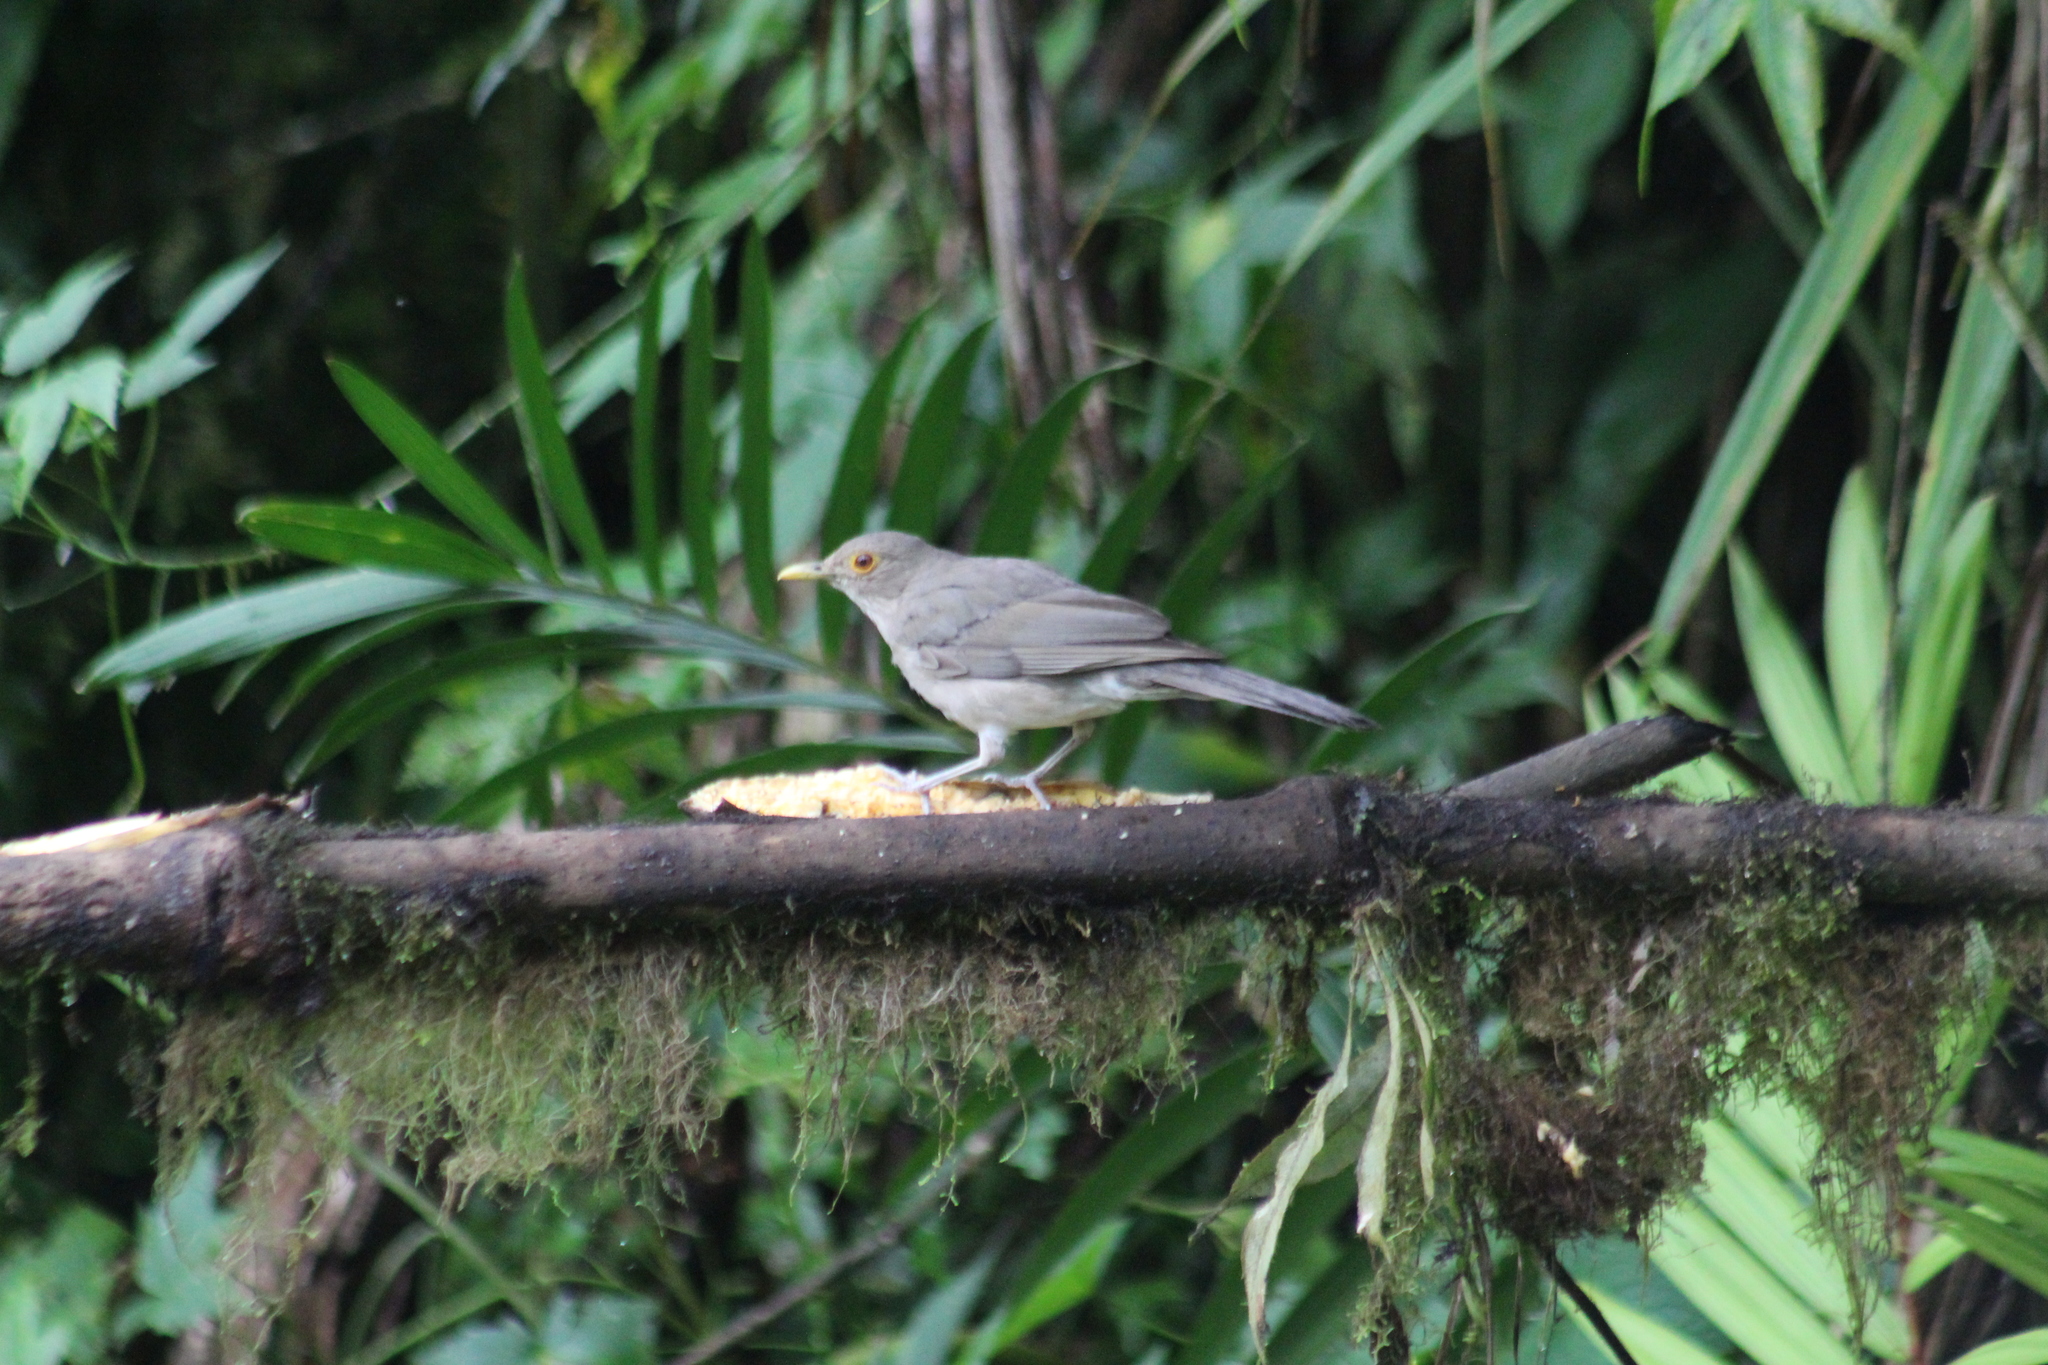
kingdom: Animalia
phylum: Chordata
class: Aves
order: Passeriformes
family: Turdidae
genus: Turdus
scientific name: Turdus maculirostris
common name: Ecuadorian thrush
